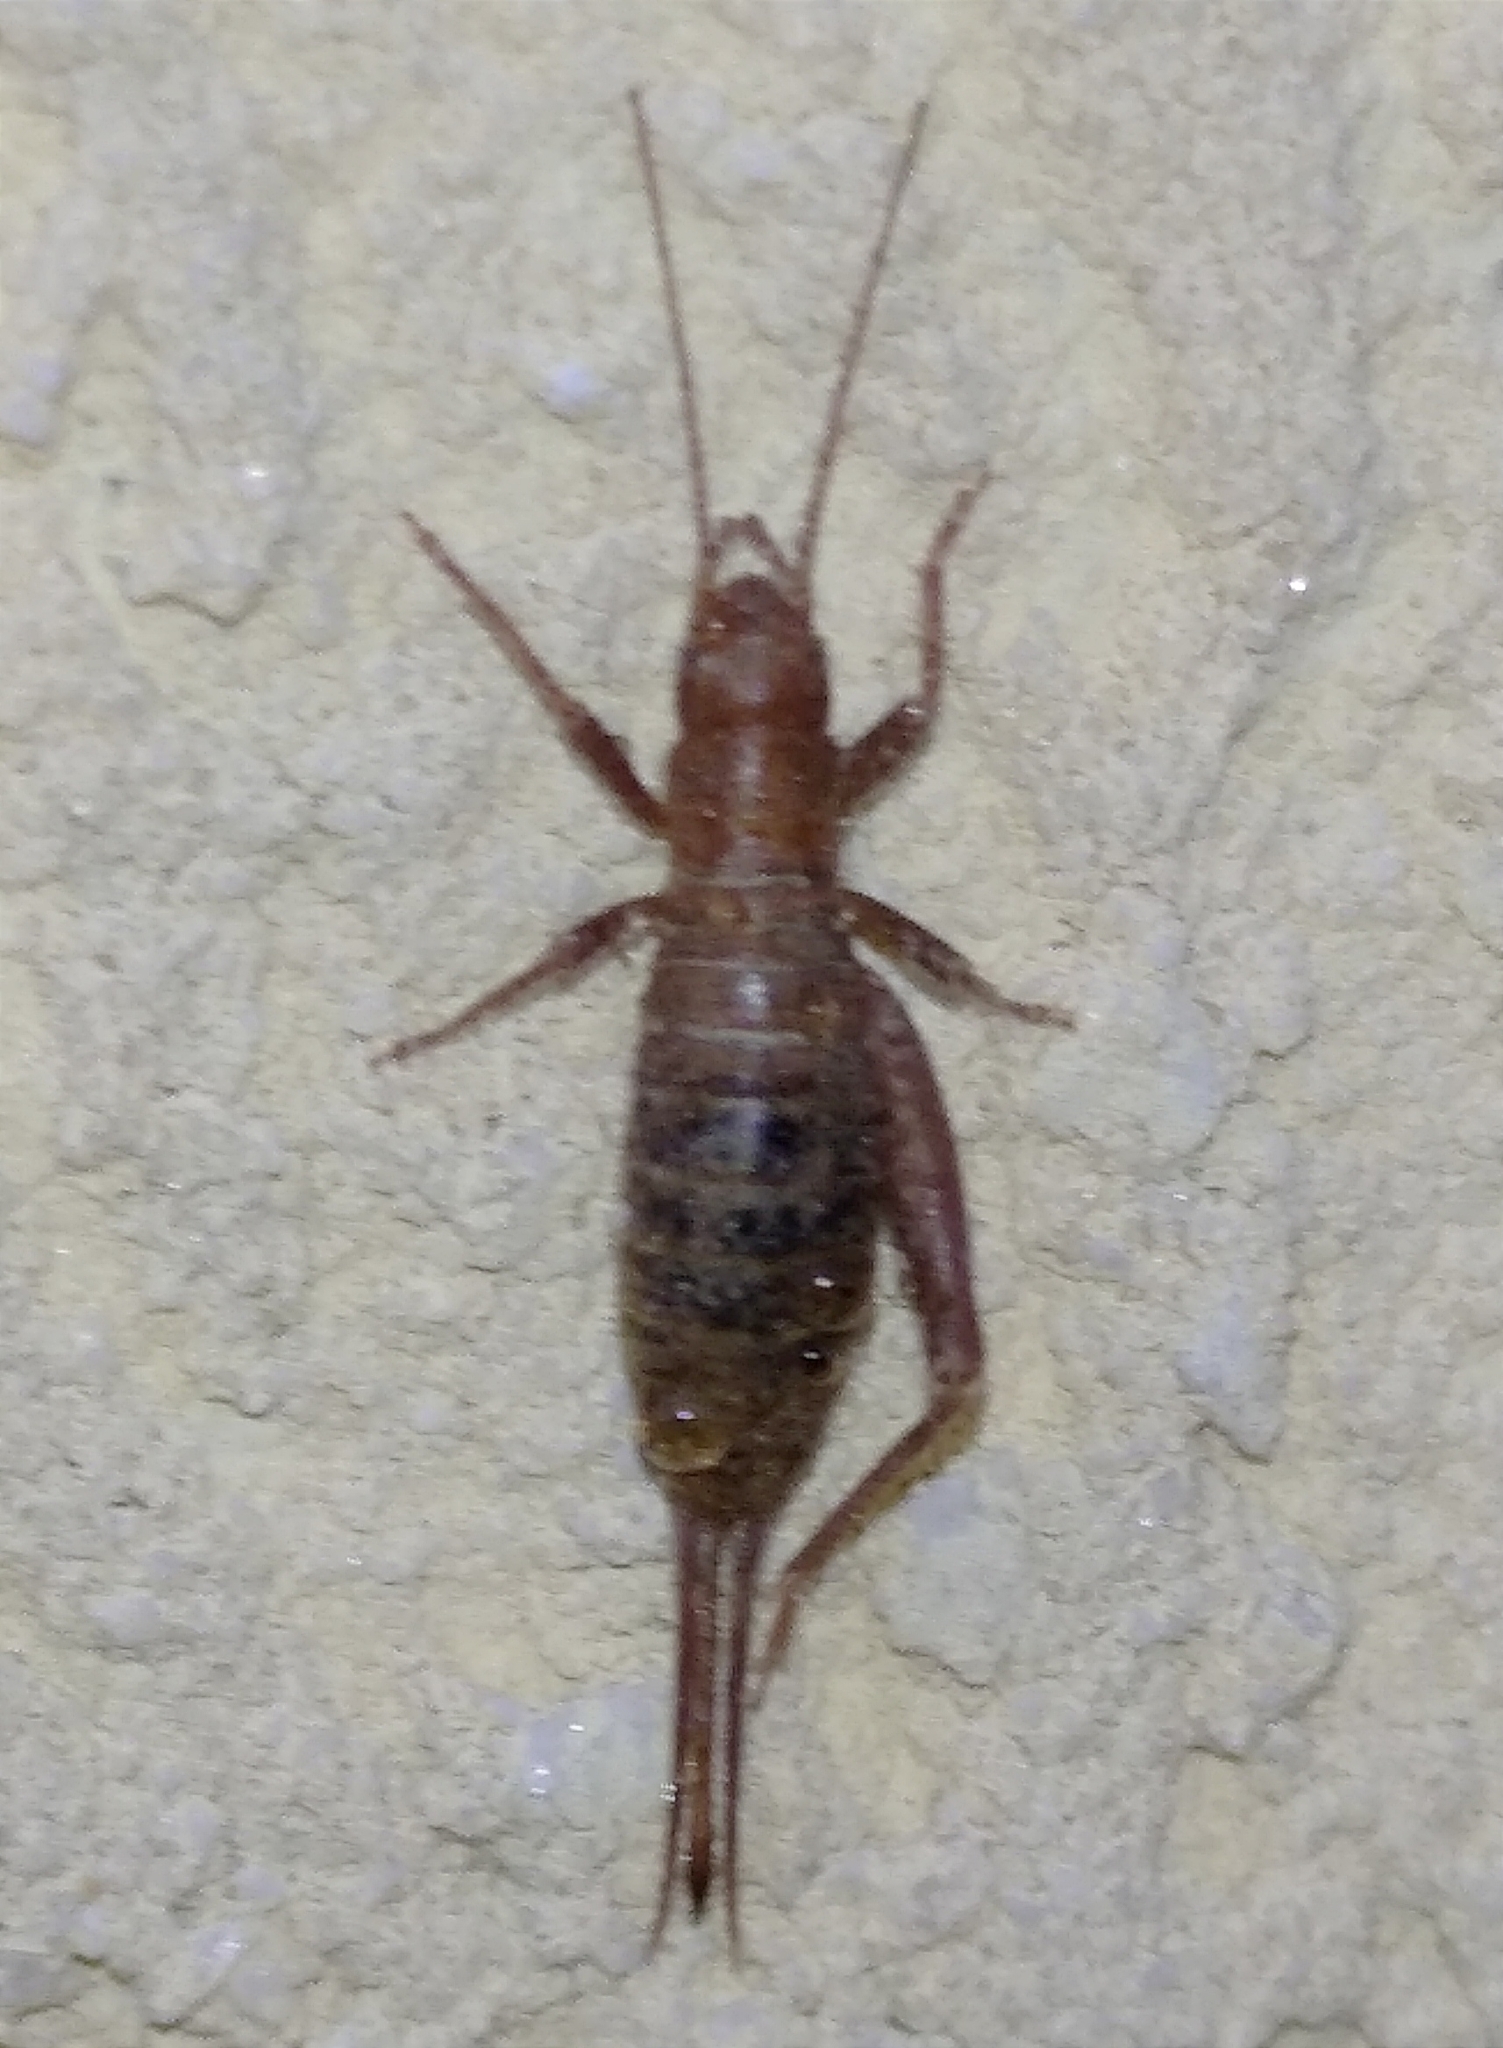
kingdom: Animalia
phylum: Arthropoda
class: Insecta
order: Orthoptera
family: Mogoplistidae
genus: Arachnocephalus
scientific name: Arachnocephalus vestitus
